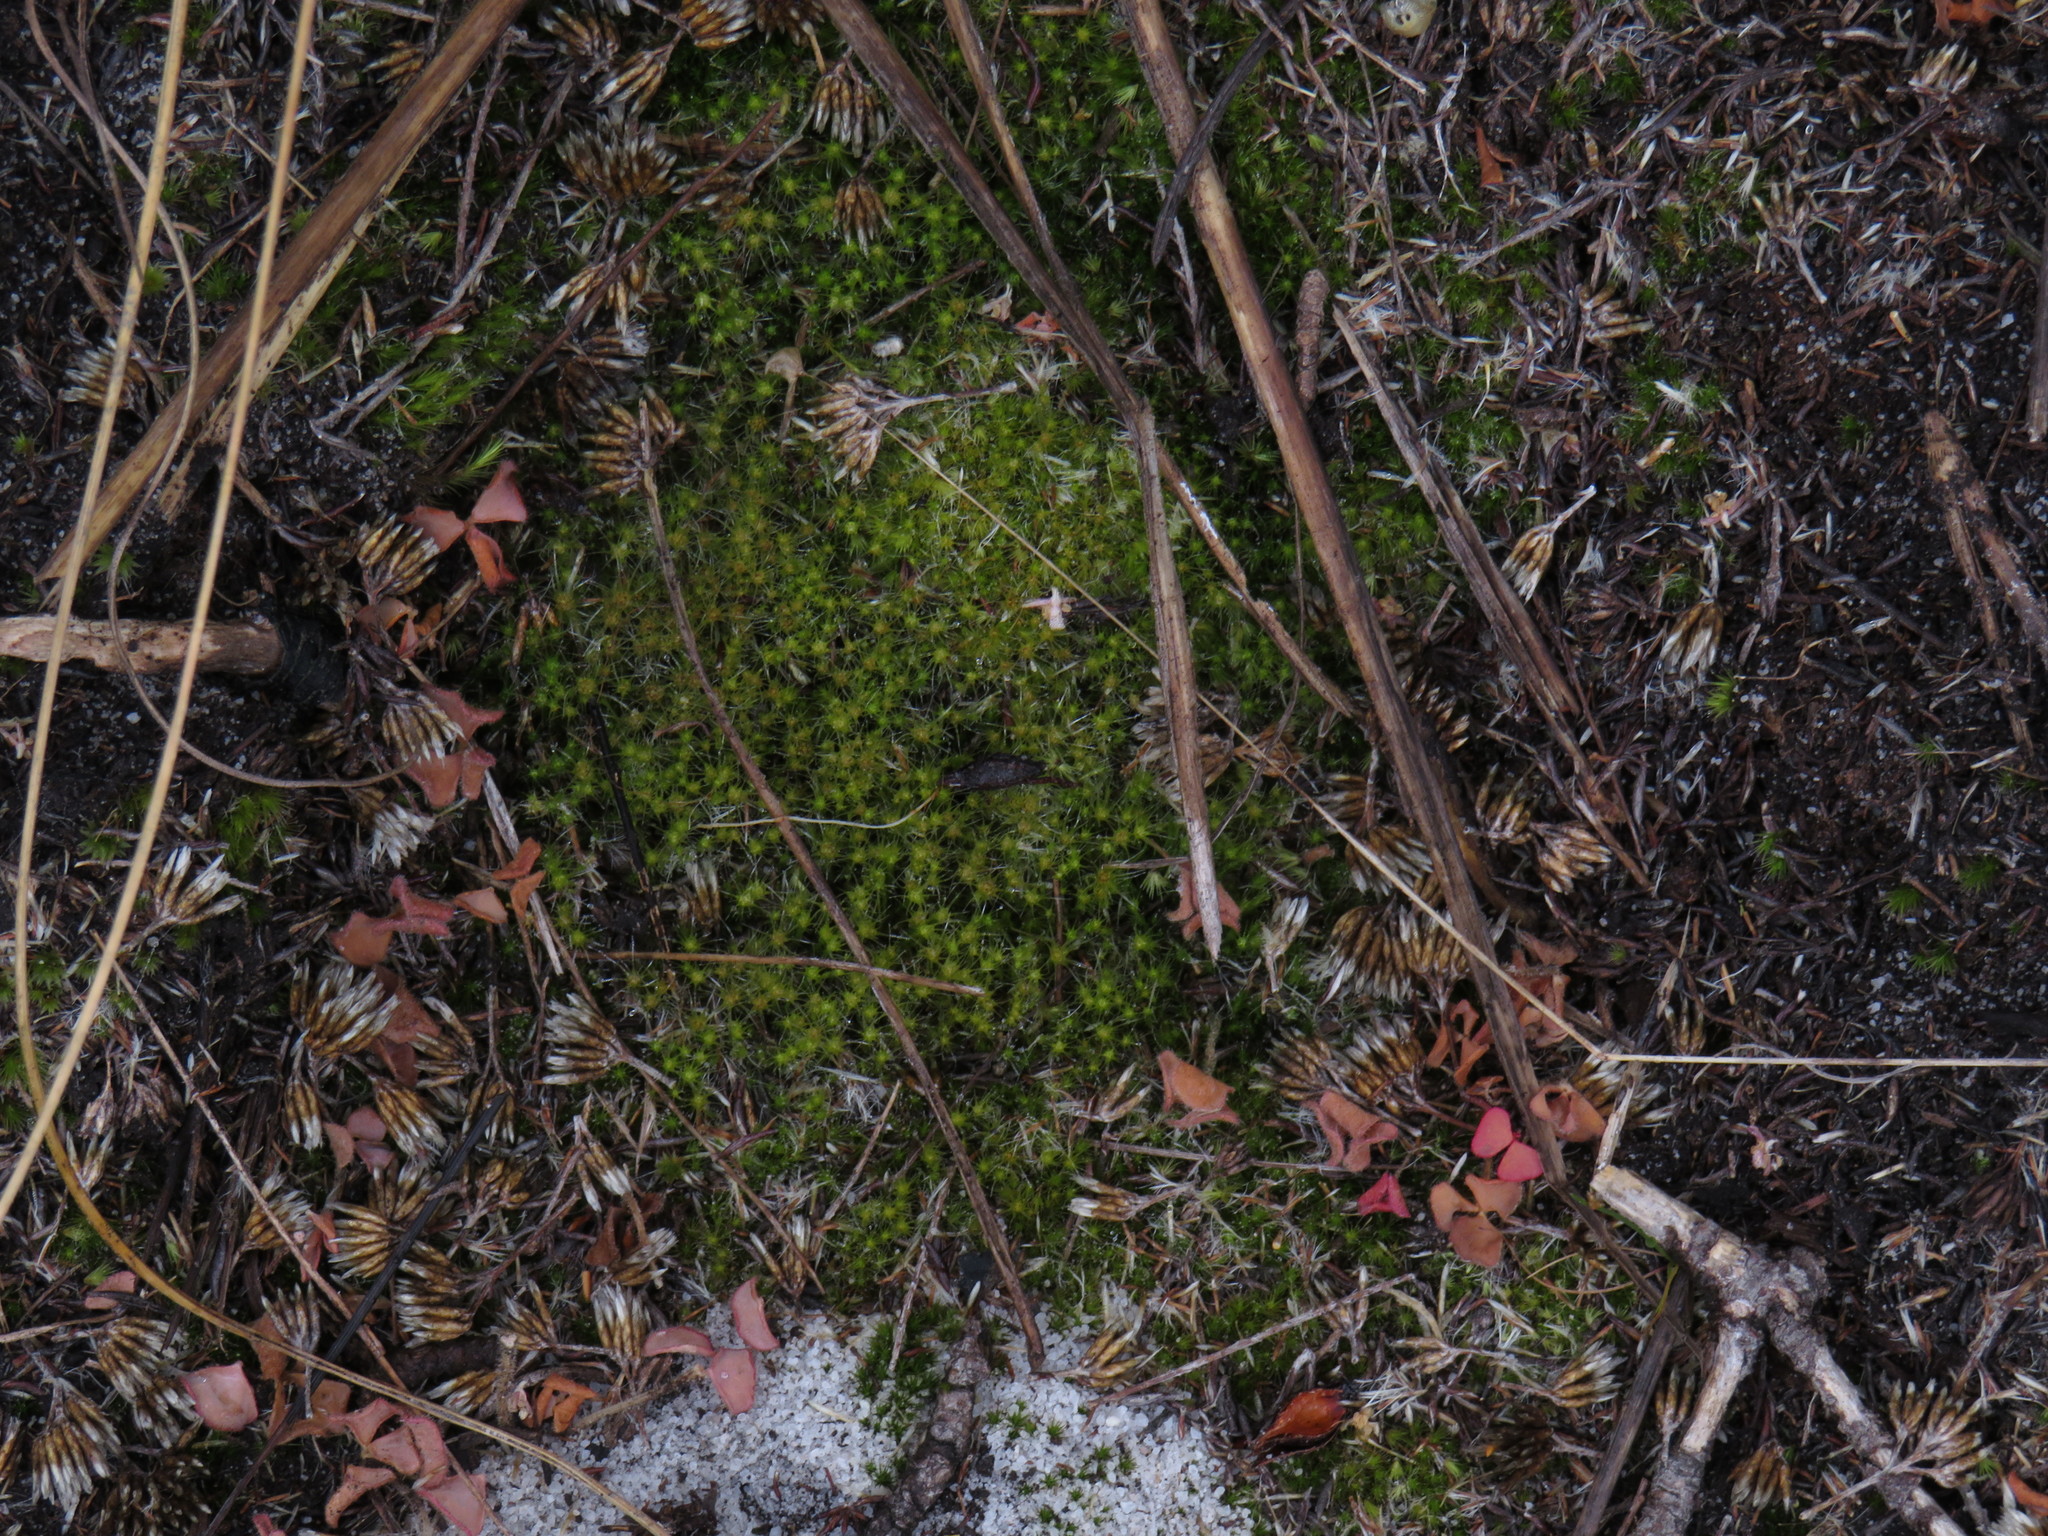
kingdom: Plantae
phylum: Bryophyta
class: Bryopsida
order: Dicranales
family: Leucobryaceae
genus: Campylopus
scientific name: Campylopus introflexus
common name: Heath star moss
